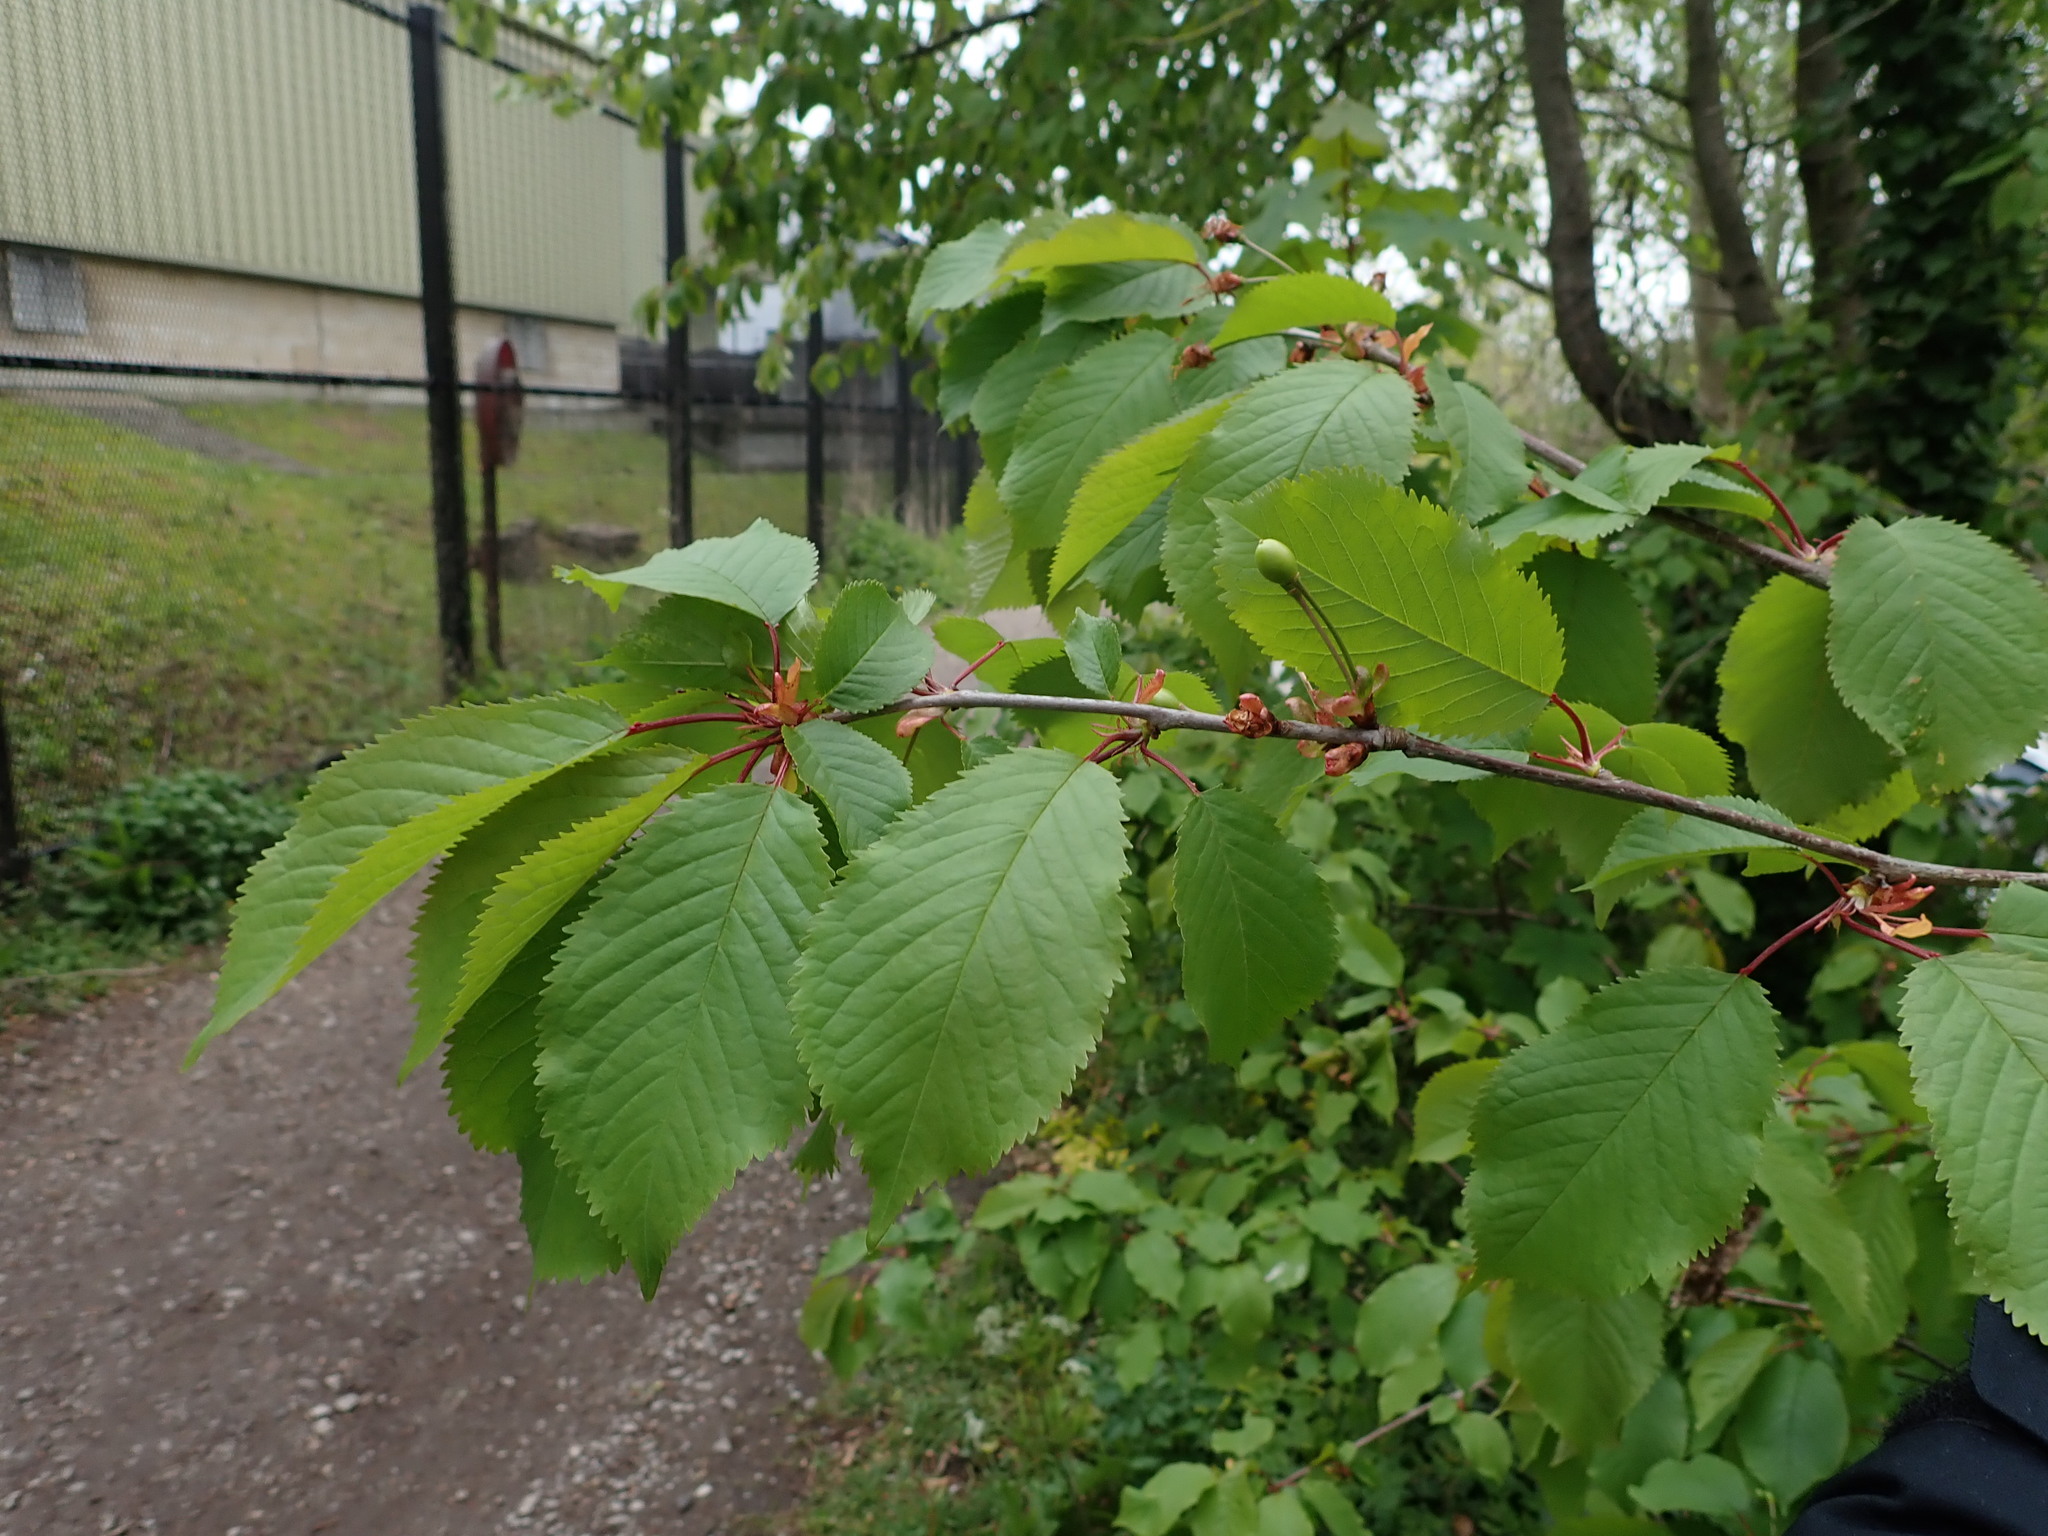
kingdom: Plantae
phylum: Tracheophyta
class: Magnoliopsida
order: Rosales
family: Rosaceae
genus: Prunus
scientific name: Prunus avium
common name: Sweet cherry
